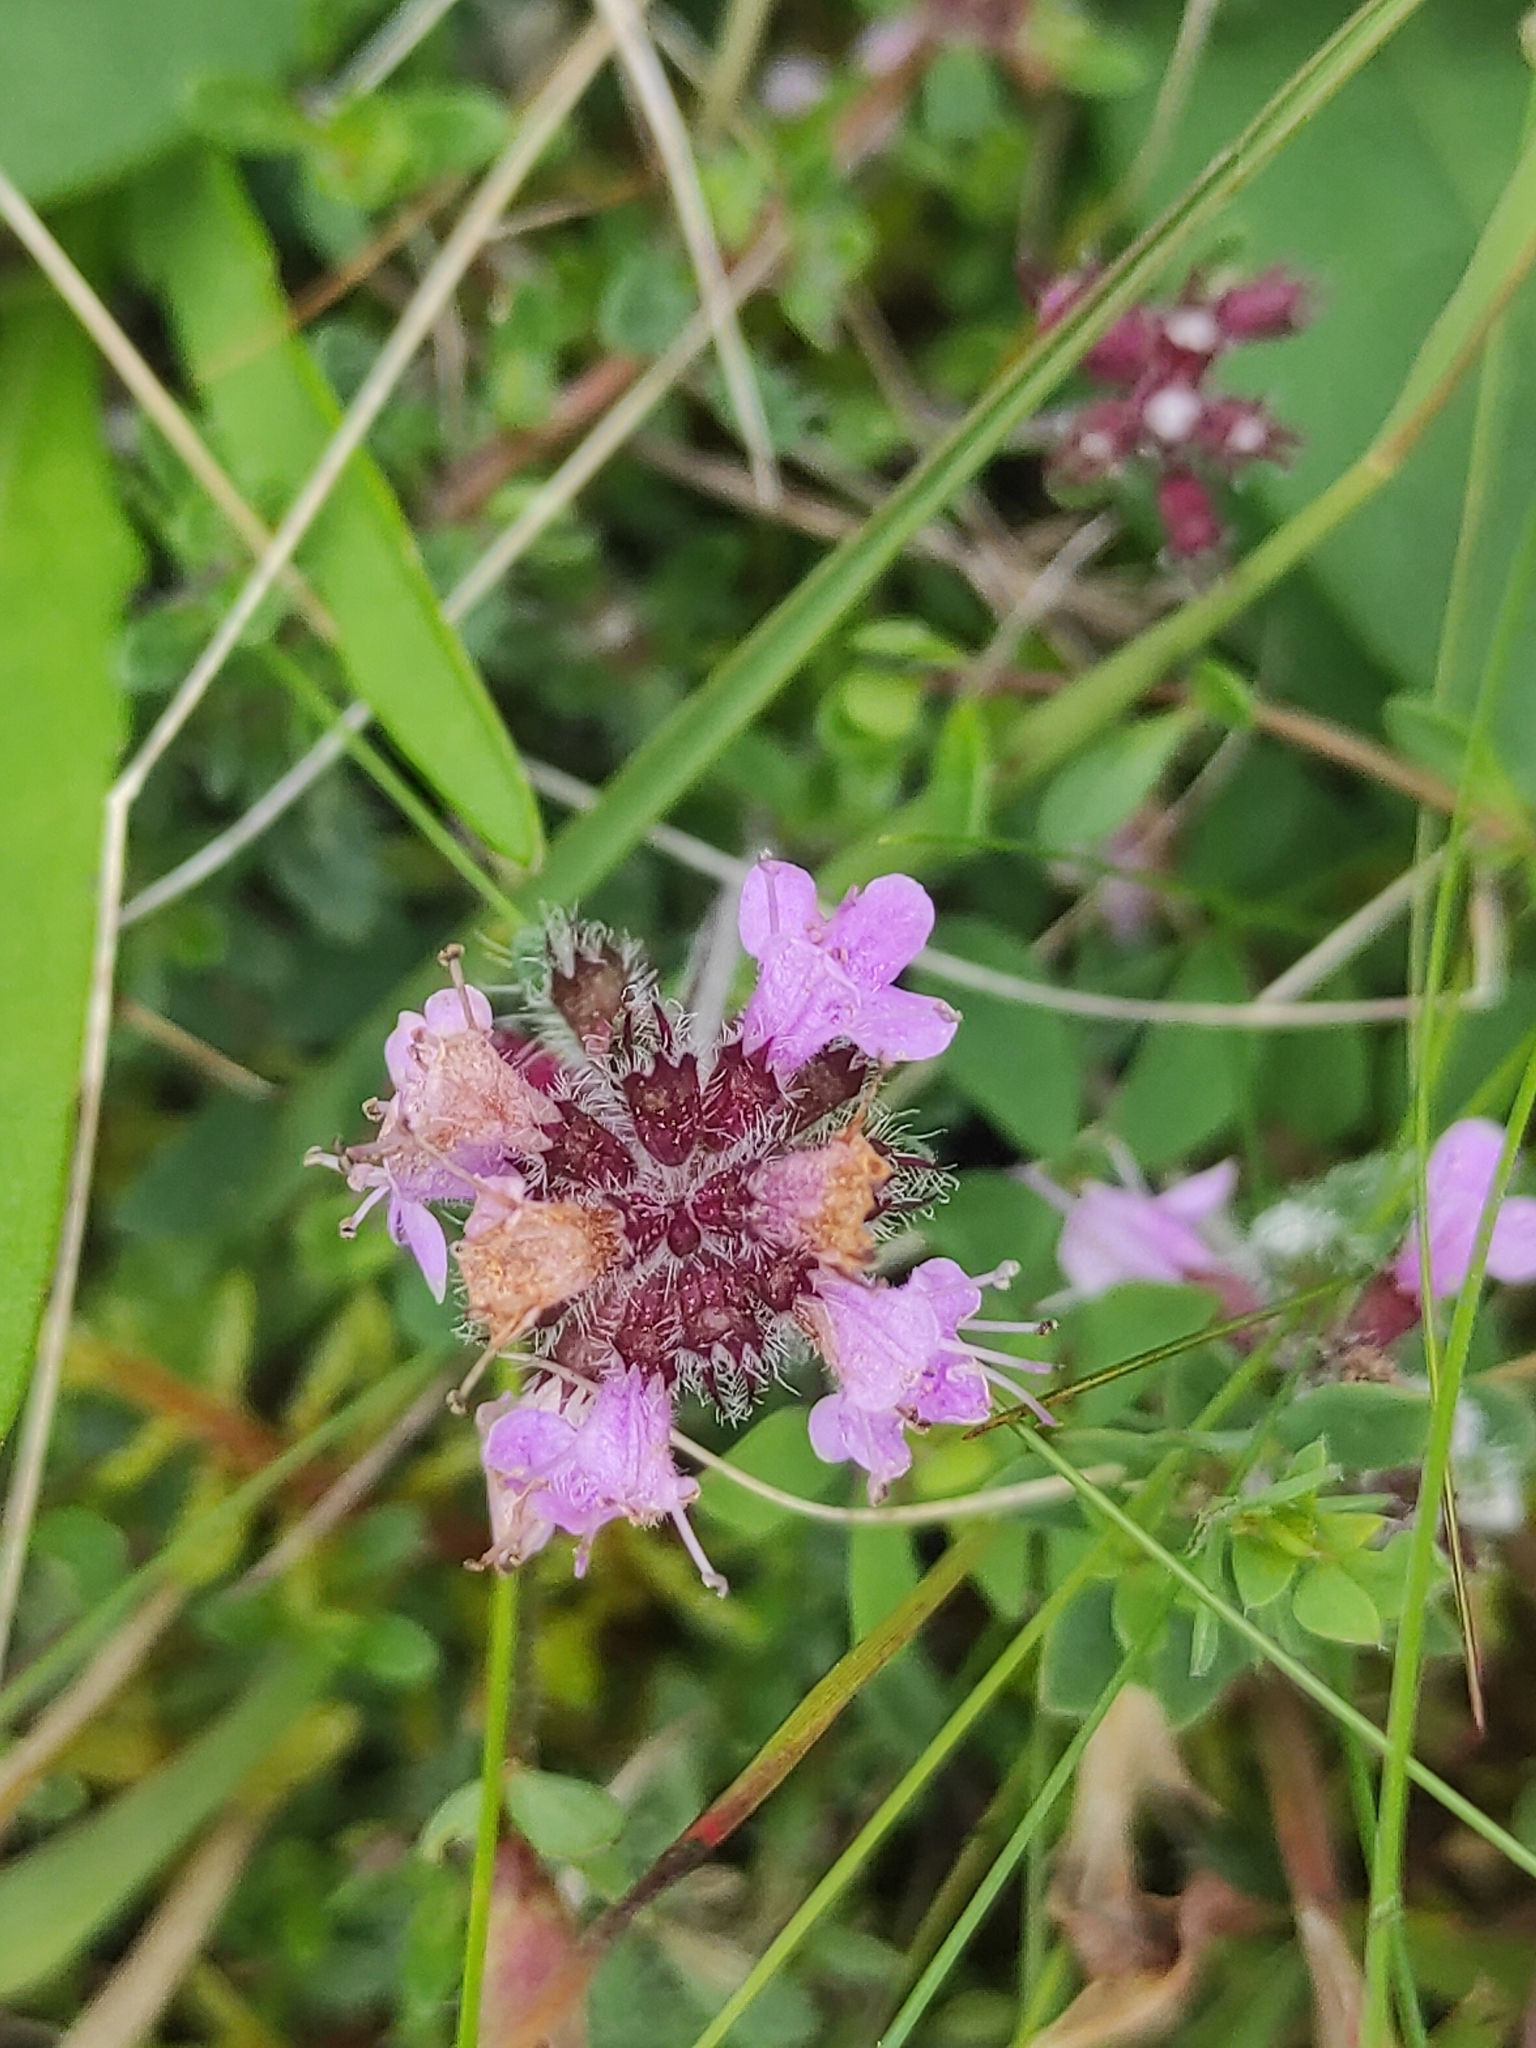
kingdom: Plantae
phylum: Tracheophyta
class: Magnoliopsida
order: Lamiales
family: Lamiaceae
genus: Thymus
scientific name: Thymus praecox
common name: Wild thyme
